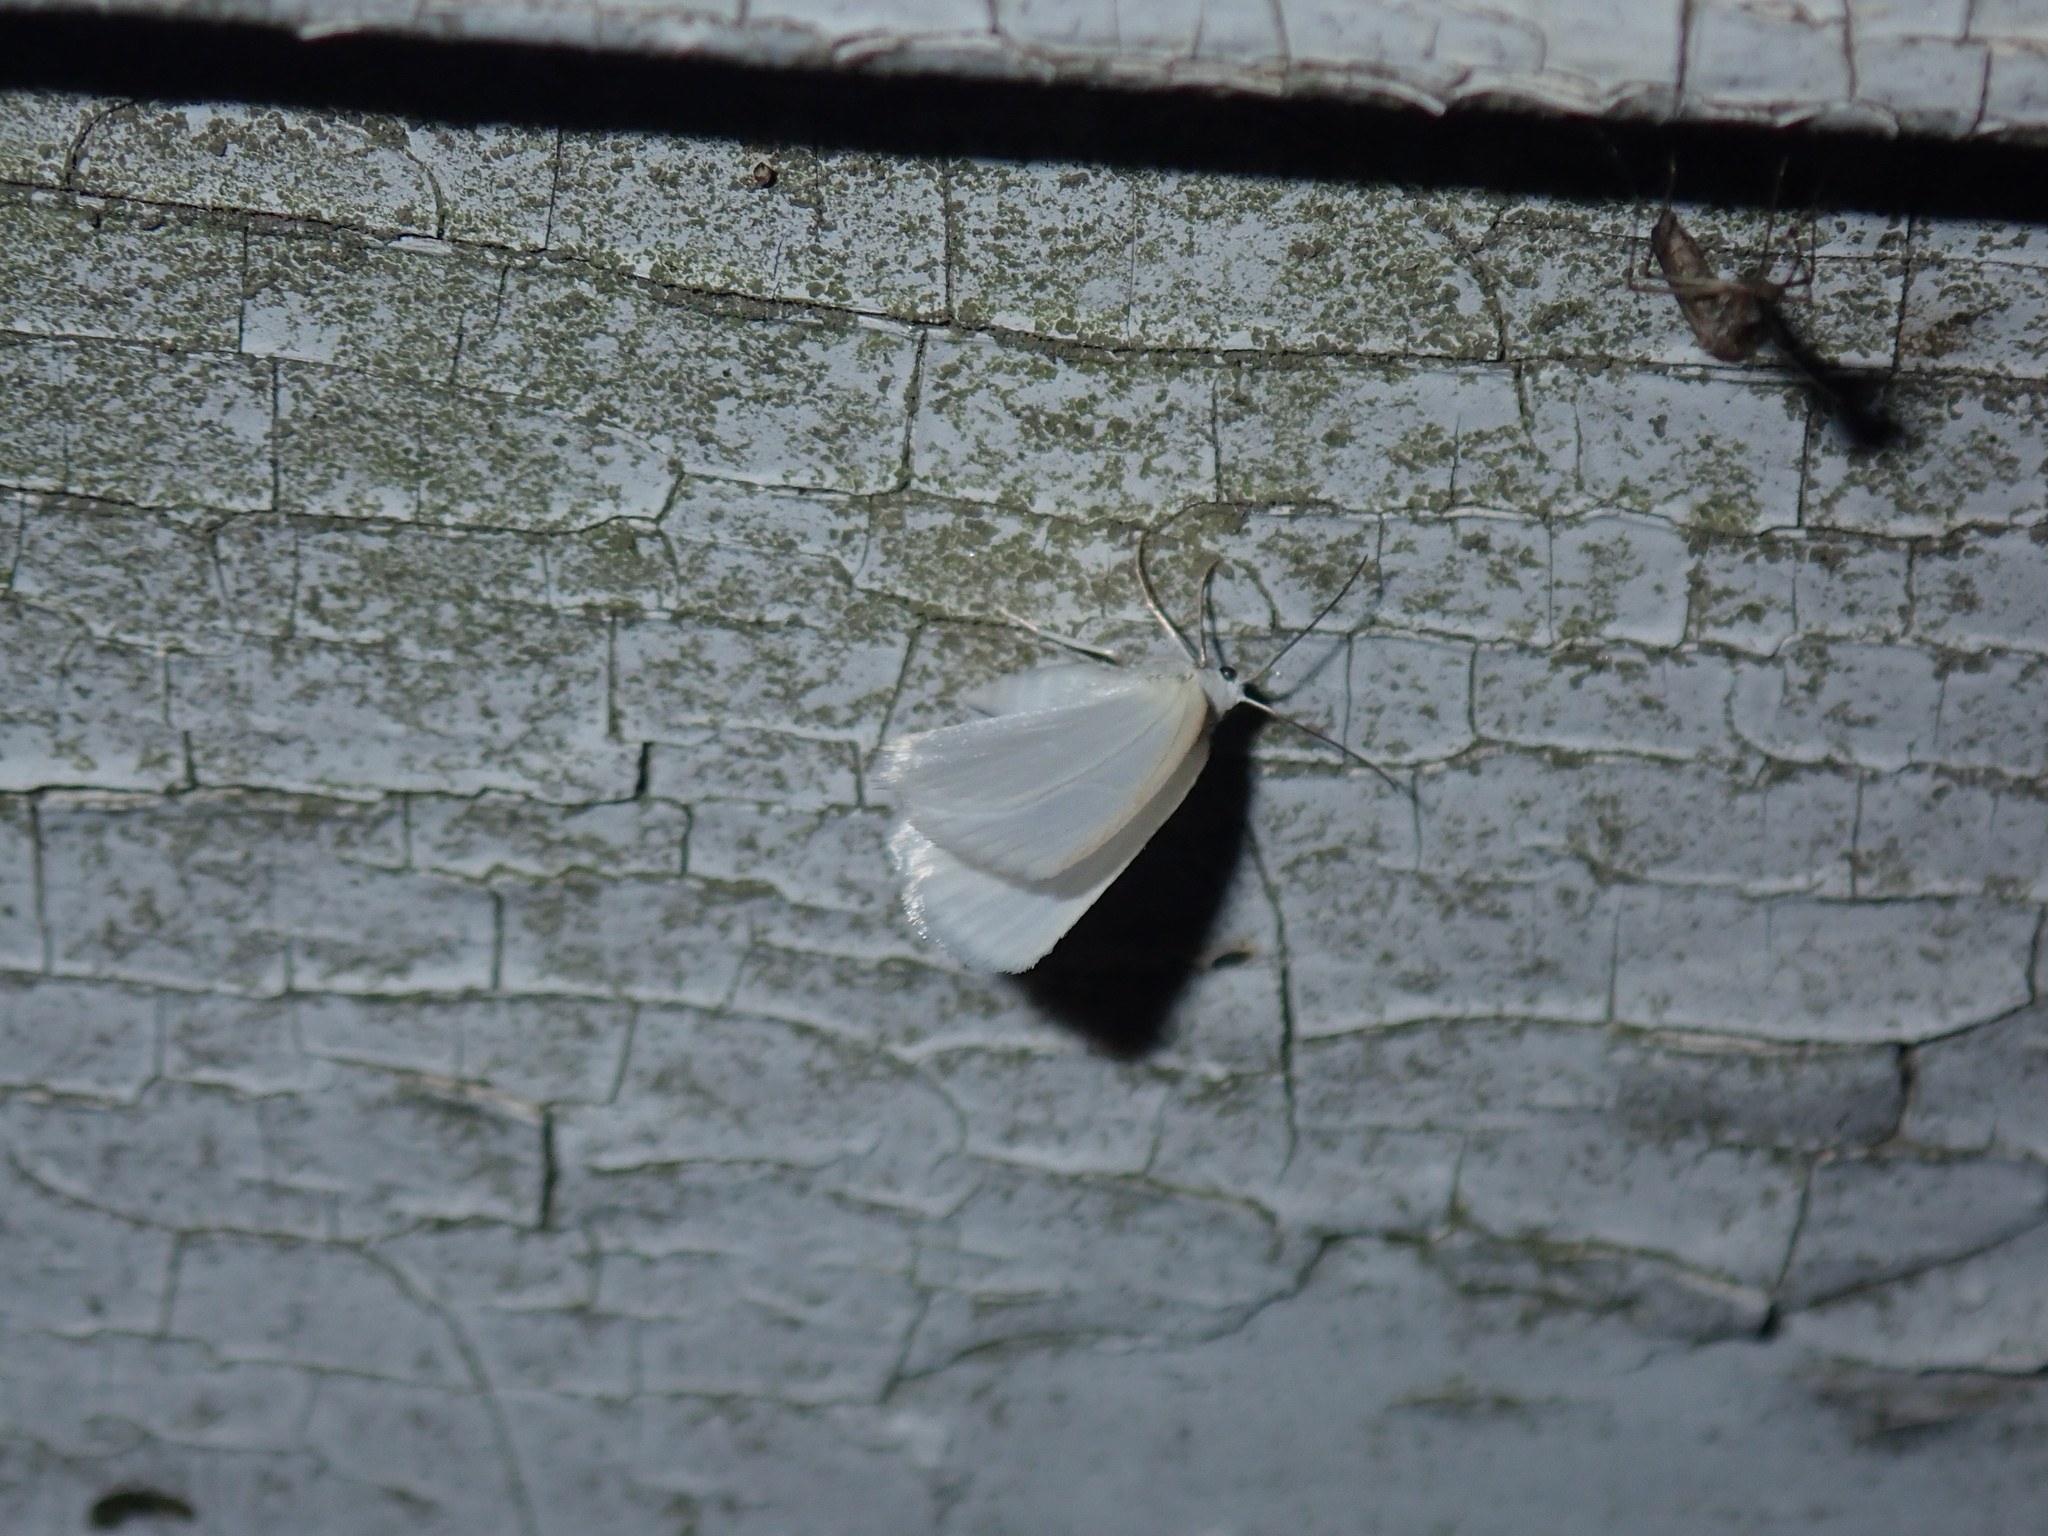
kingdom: Animalia
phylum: Arthropoda
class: Insecta
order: Lepidoptera
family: Geometridae
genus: Lomographa
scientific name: Lomographa vestaliata
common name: White spring moth
